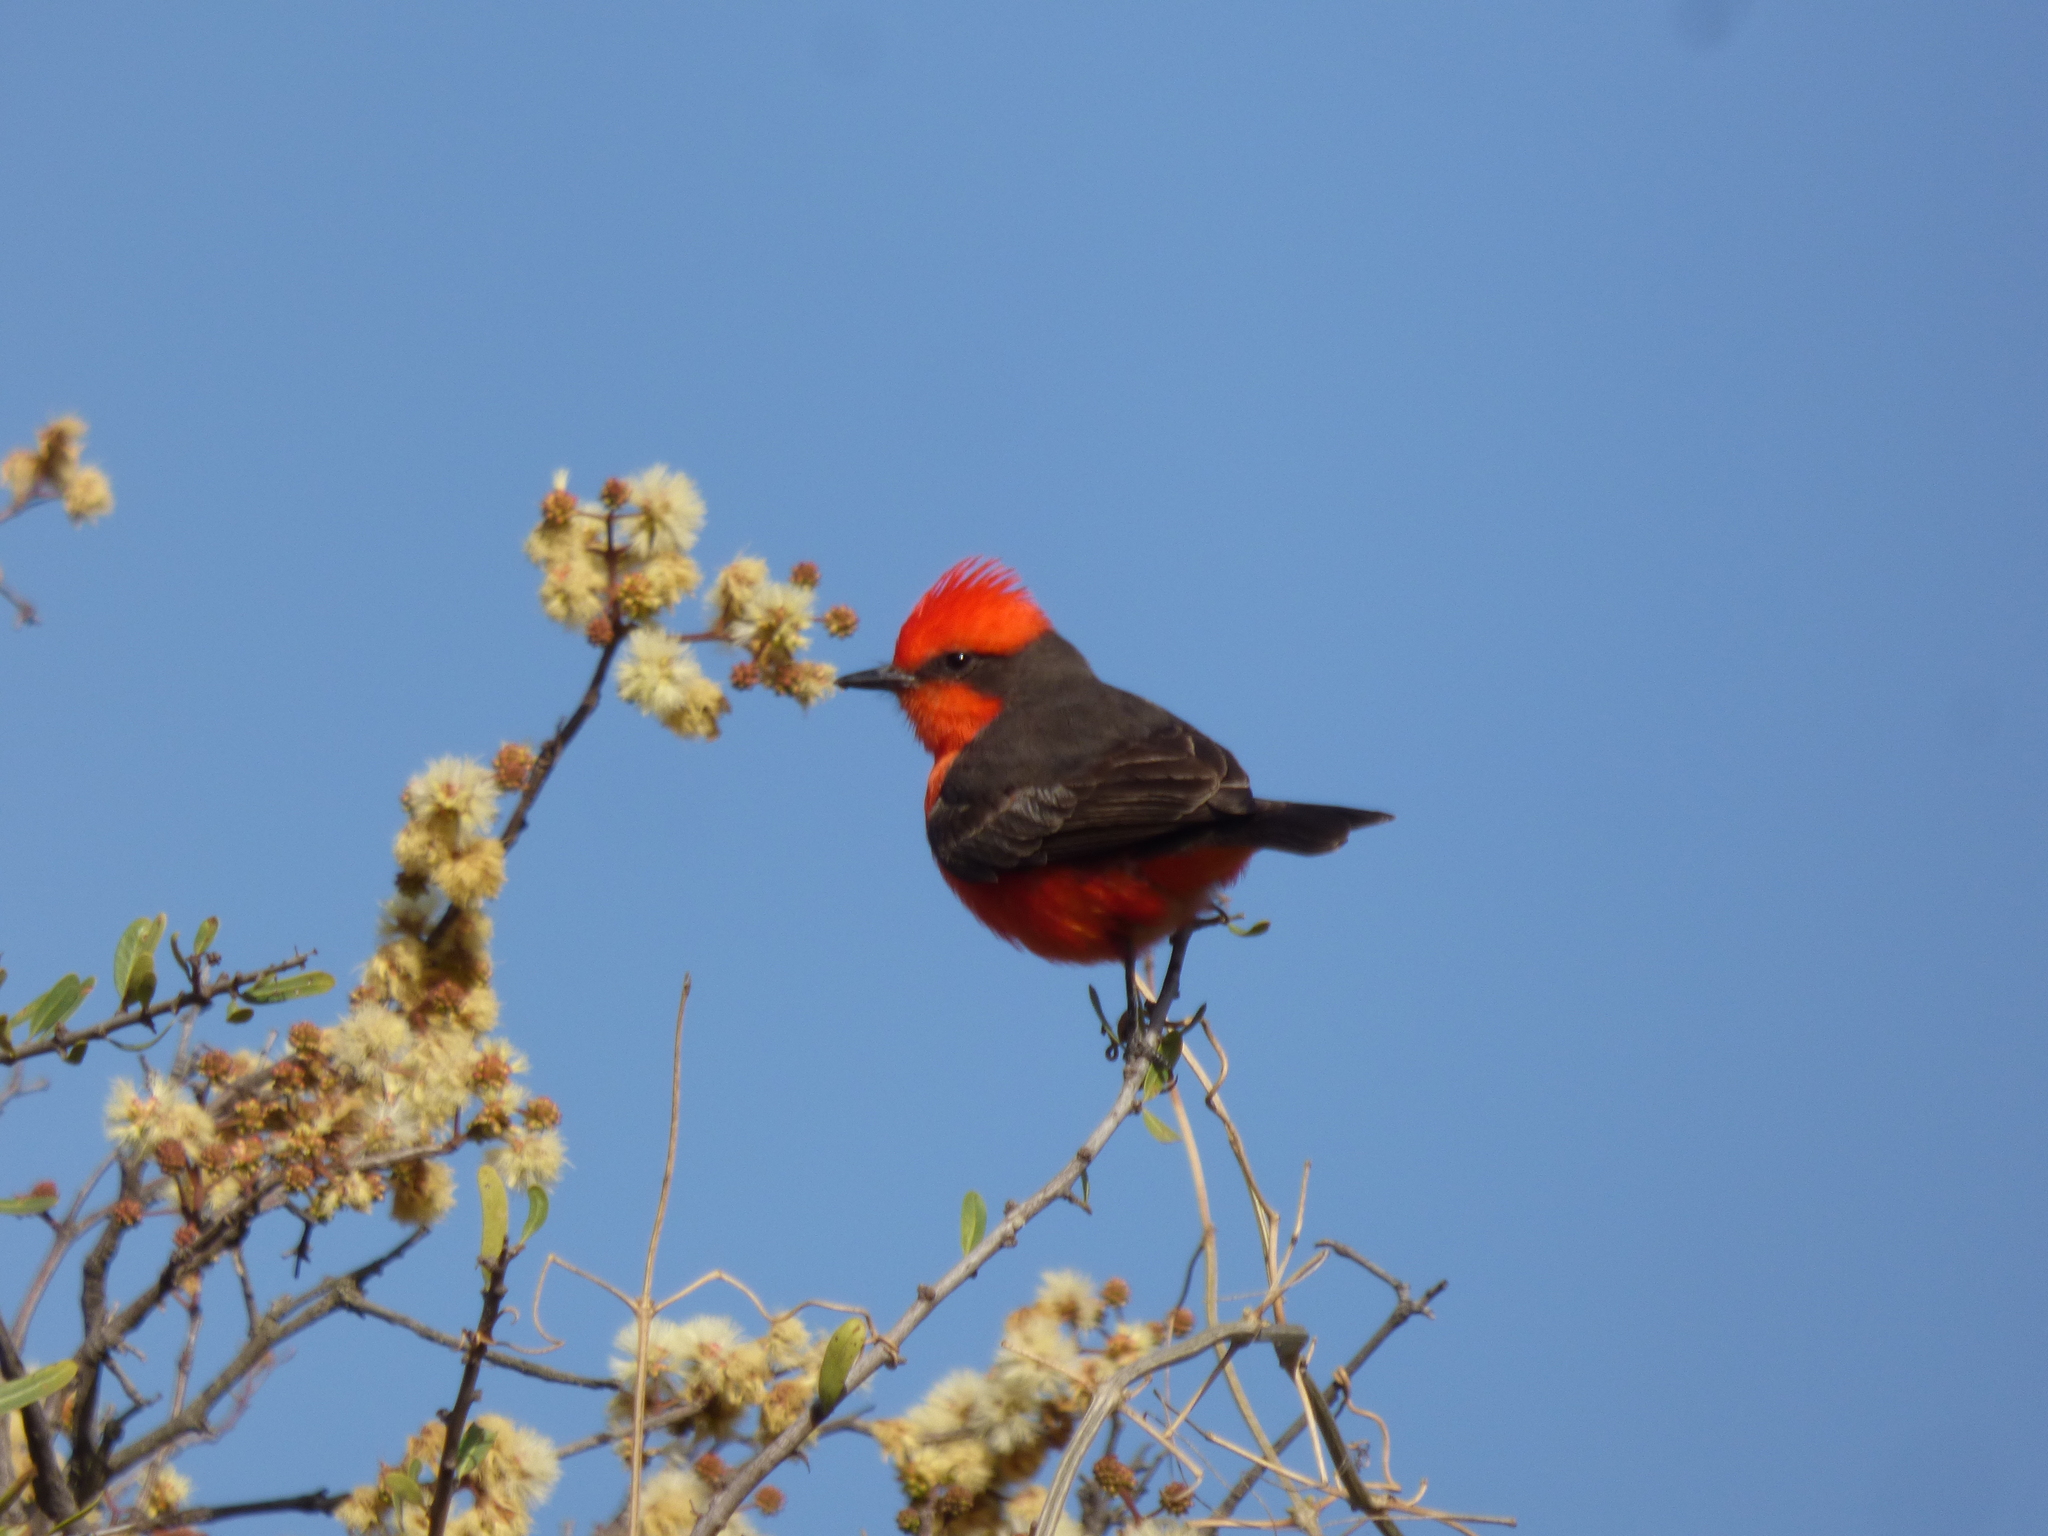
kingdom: Animalia
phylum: Chordata
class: Aves
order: Passeriformes
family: Tyrannidae
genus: Pyrocephalus
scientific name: Pyrocephalus rubinus
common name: Vermilion flycatcher
